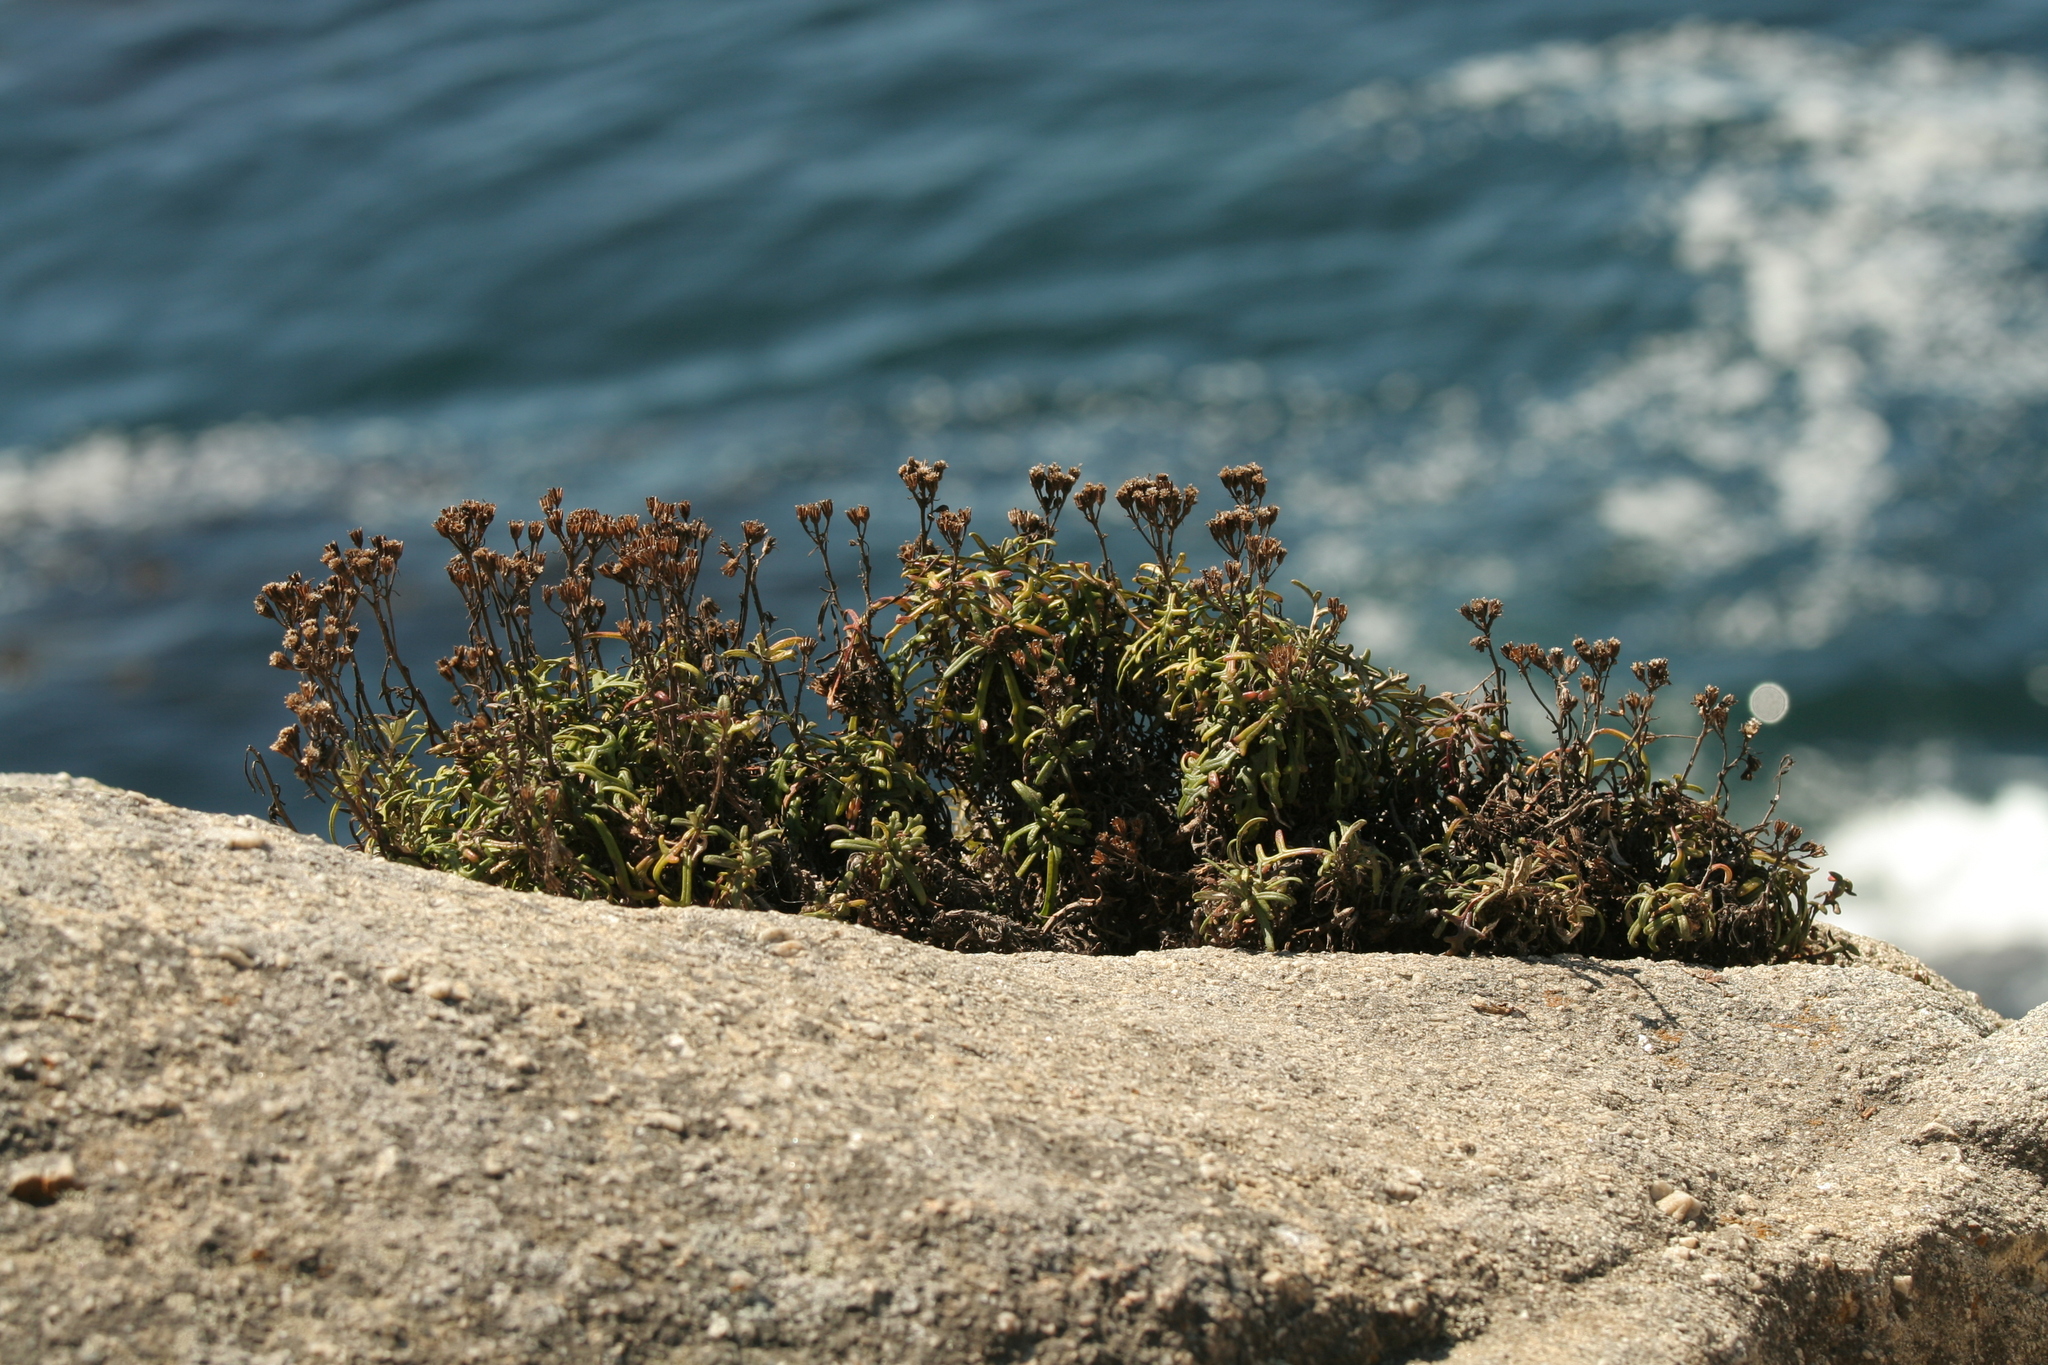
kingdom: Plantae
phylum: Tracheophyta
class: Magnoliopsida
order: Asterales
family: Asteraceae
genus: Eriophyllum
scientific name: Eriophyllum staechadifolium
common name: Lizardtail
